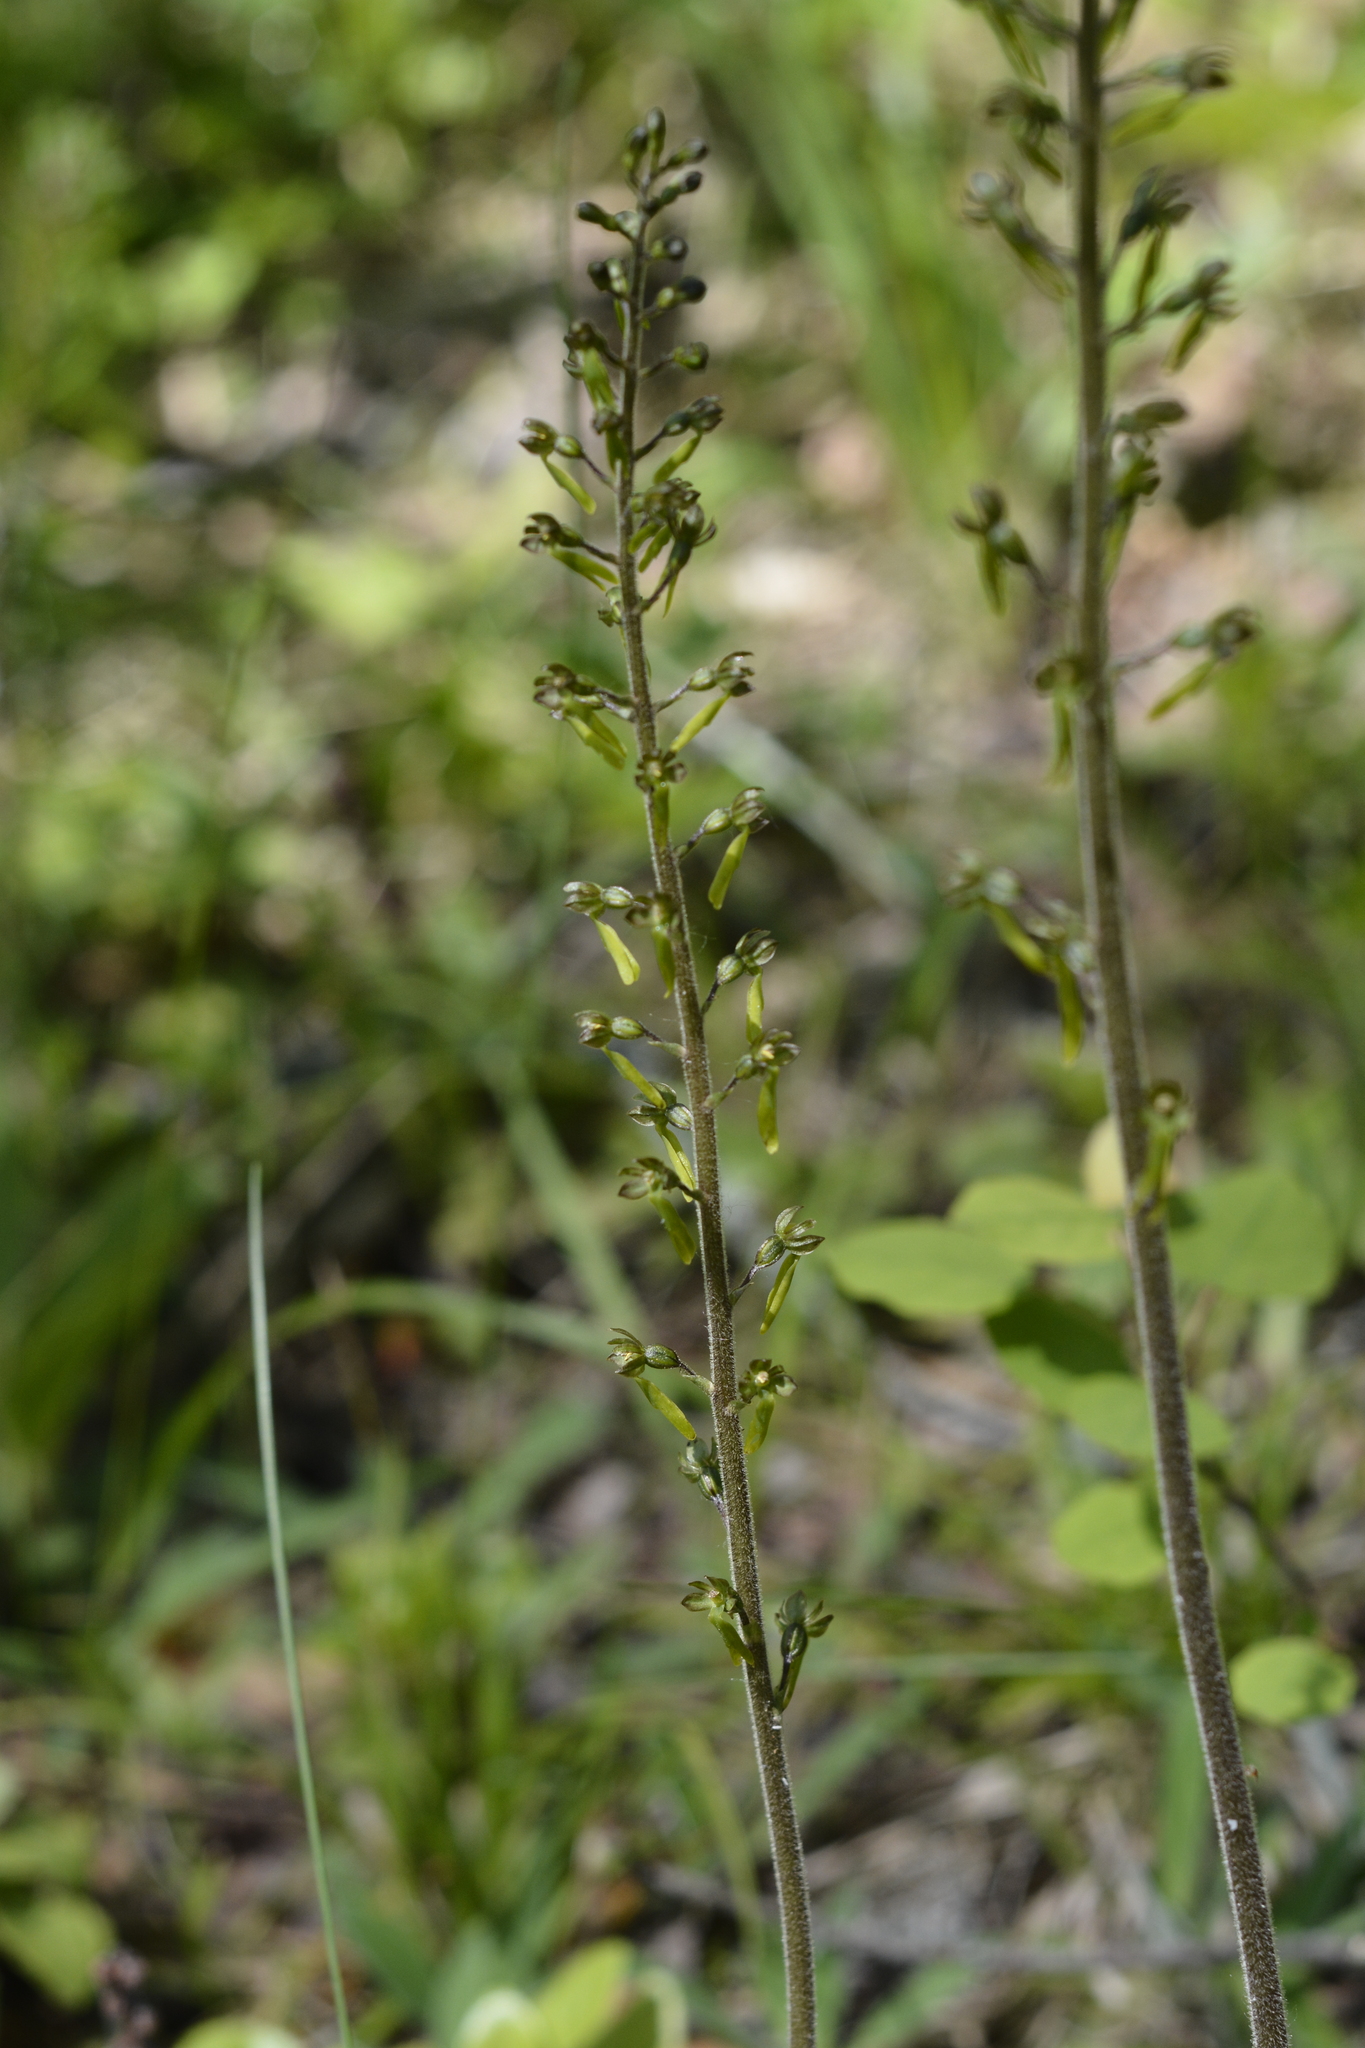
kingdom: Plantae
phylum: Tracheophyta
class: Liliopsida
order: Asparagales
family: Orchidaceae
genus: Neottia
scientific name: Neottia ovata
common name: Common twayblade
